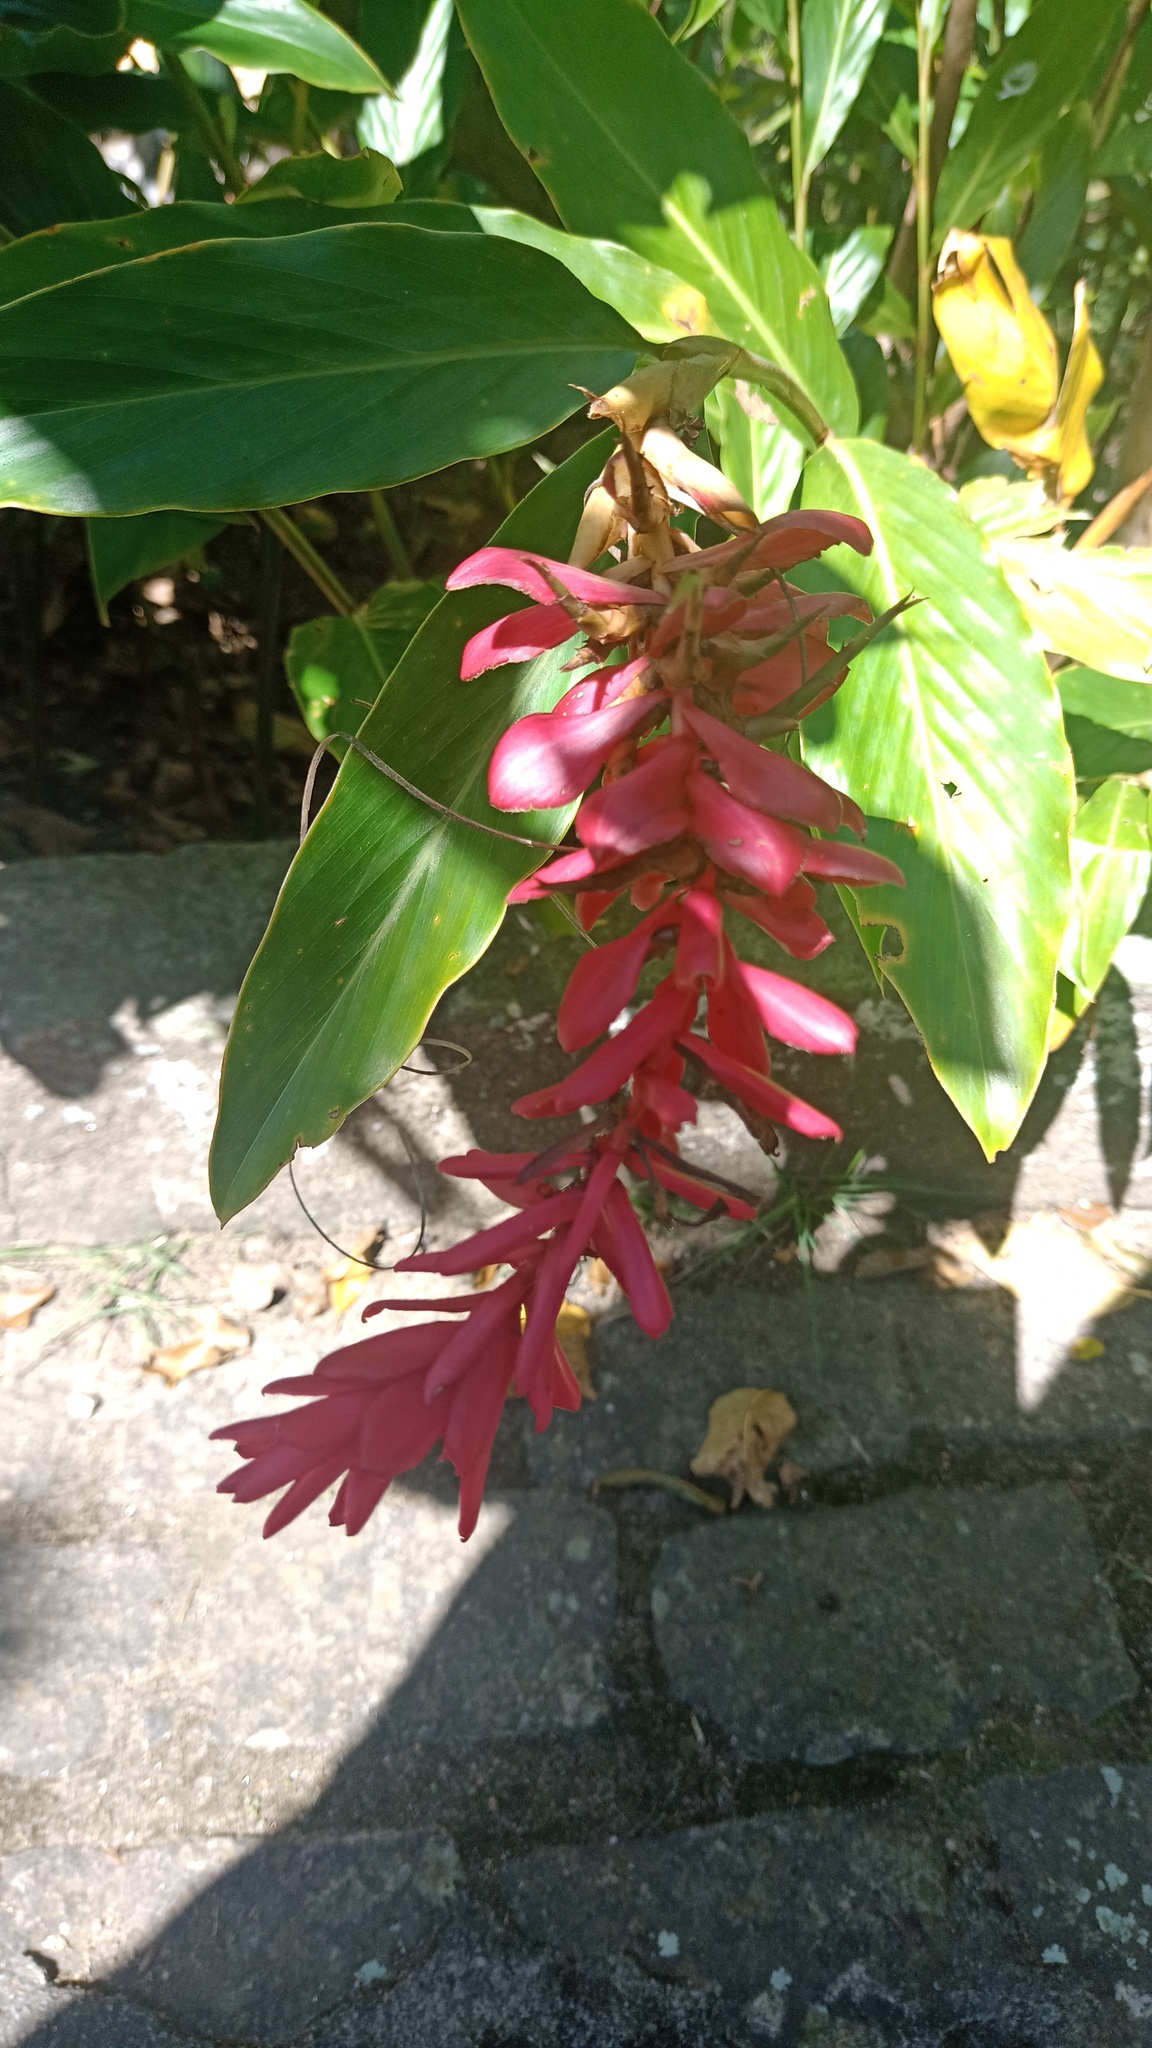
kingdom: Plantae
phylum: Tracheophyta
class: Liliopsida
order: Zingiberales
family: Zingiberaceae
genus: Alpinia
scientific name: Alpinia purpurata
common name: Red ginger
